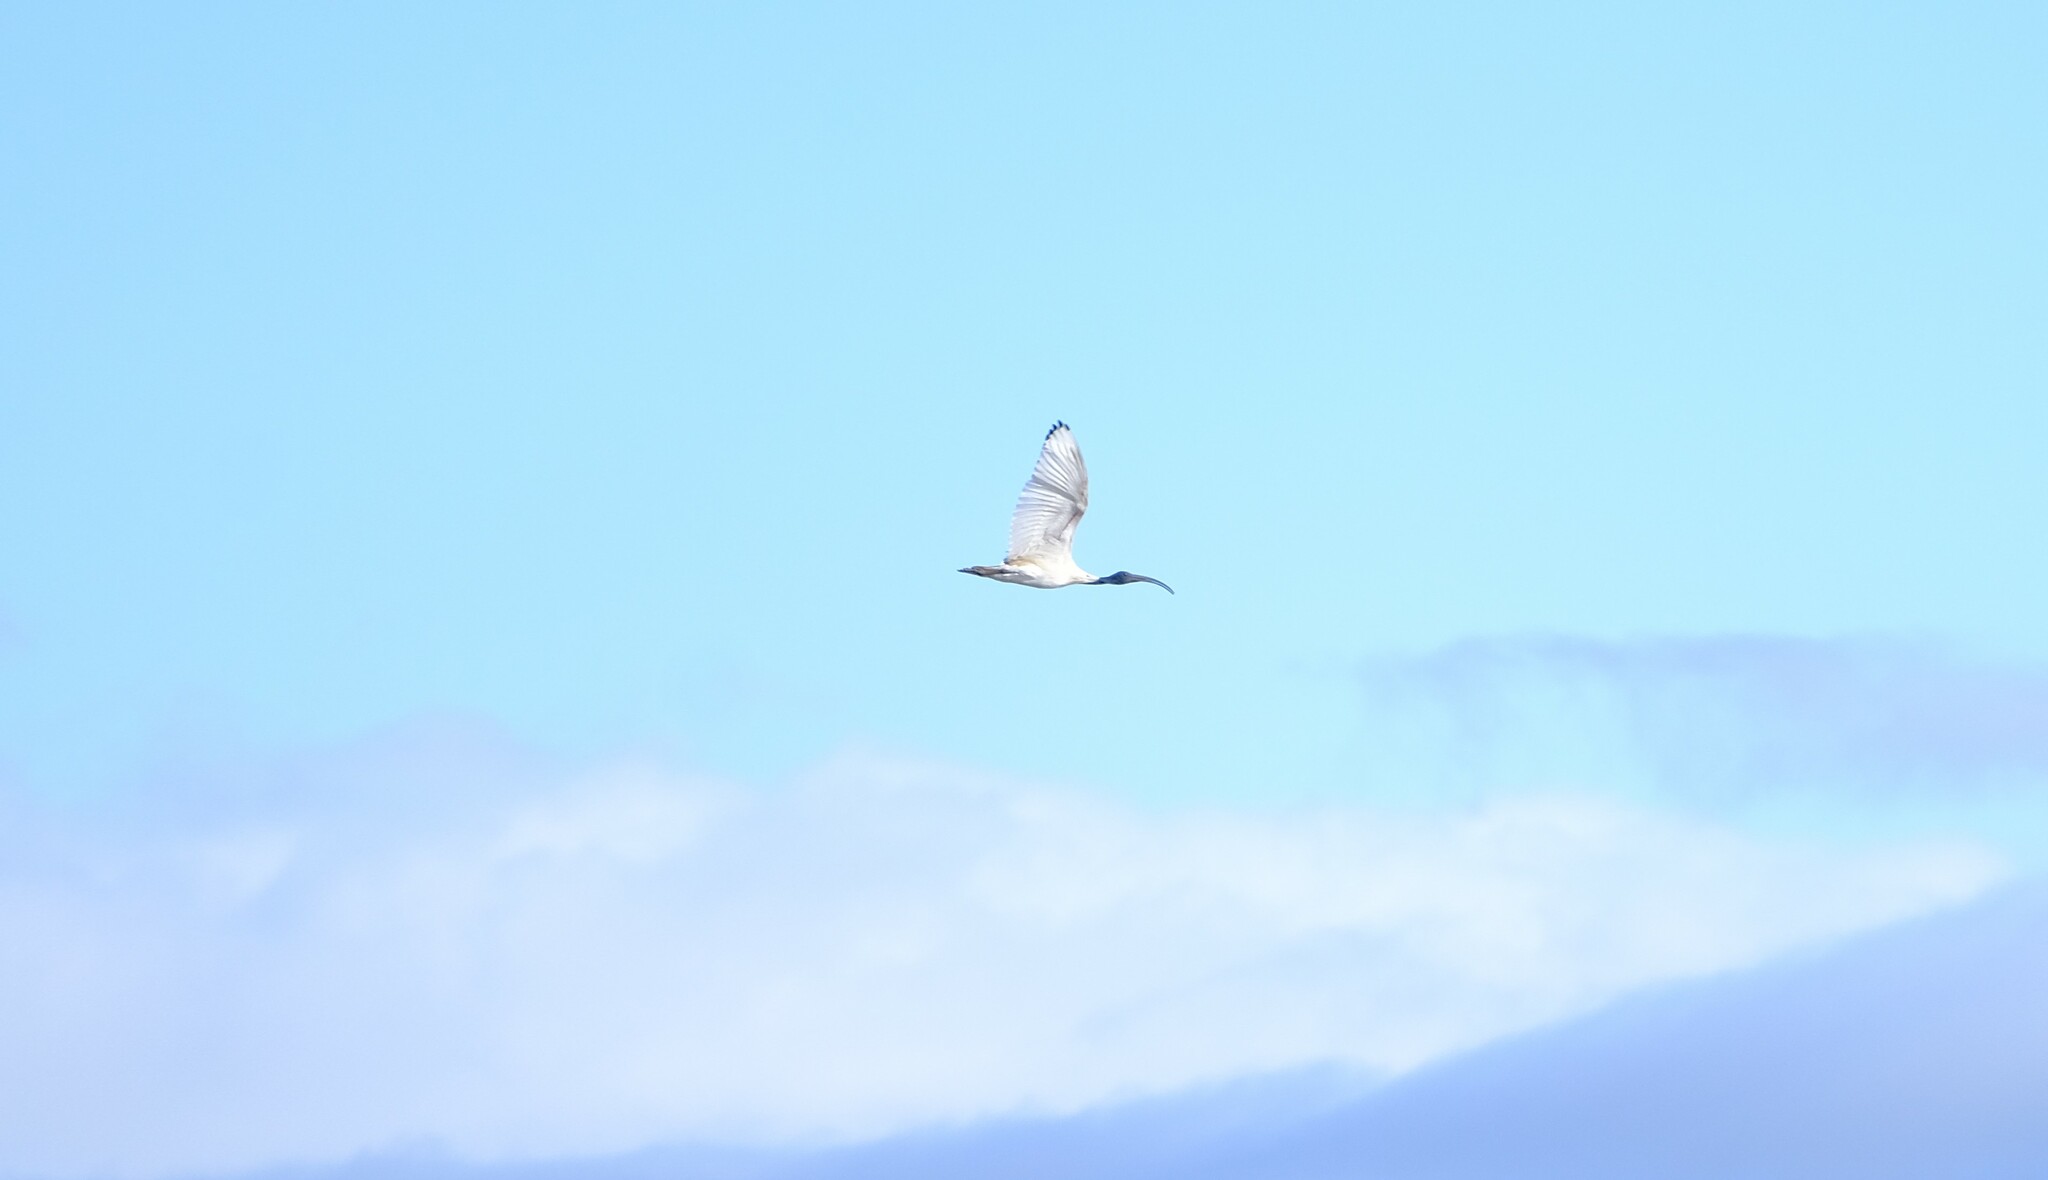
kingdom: Animalia
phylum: Chordata
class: Aves
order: Pelecaniformes
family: Threskiornithidae
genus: Threskiornis
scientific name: Threskiornis molucca
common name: Australian white ibis
